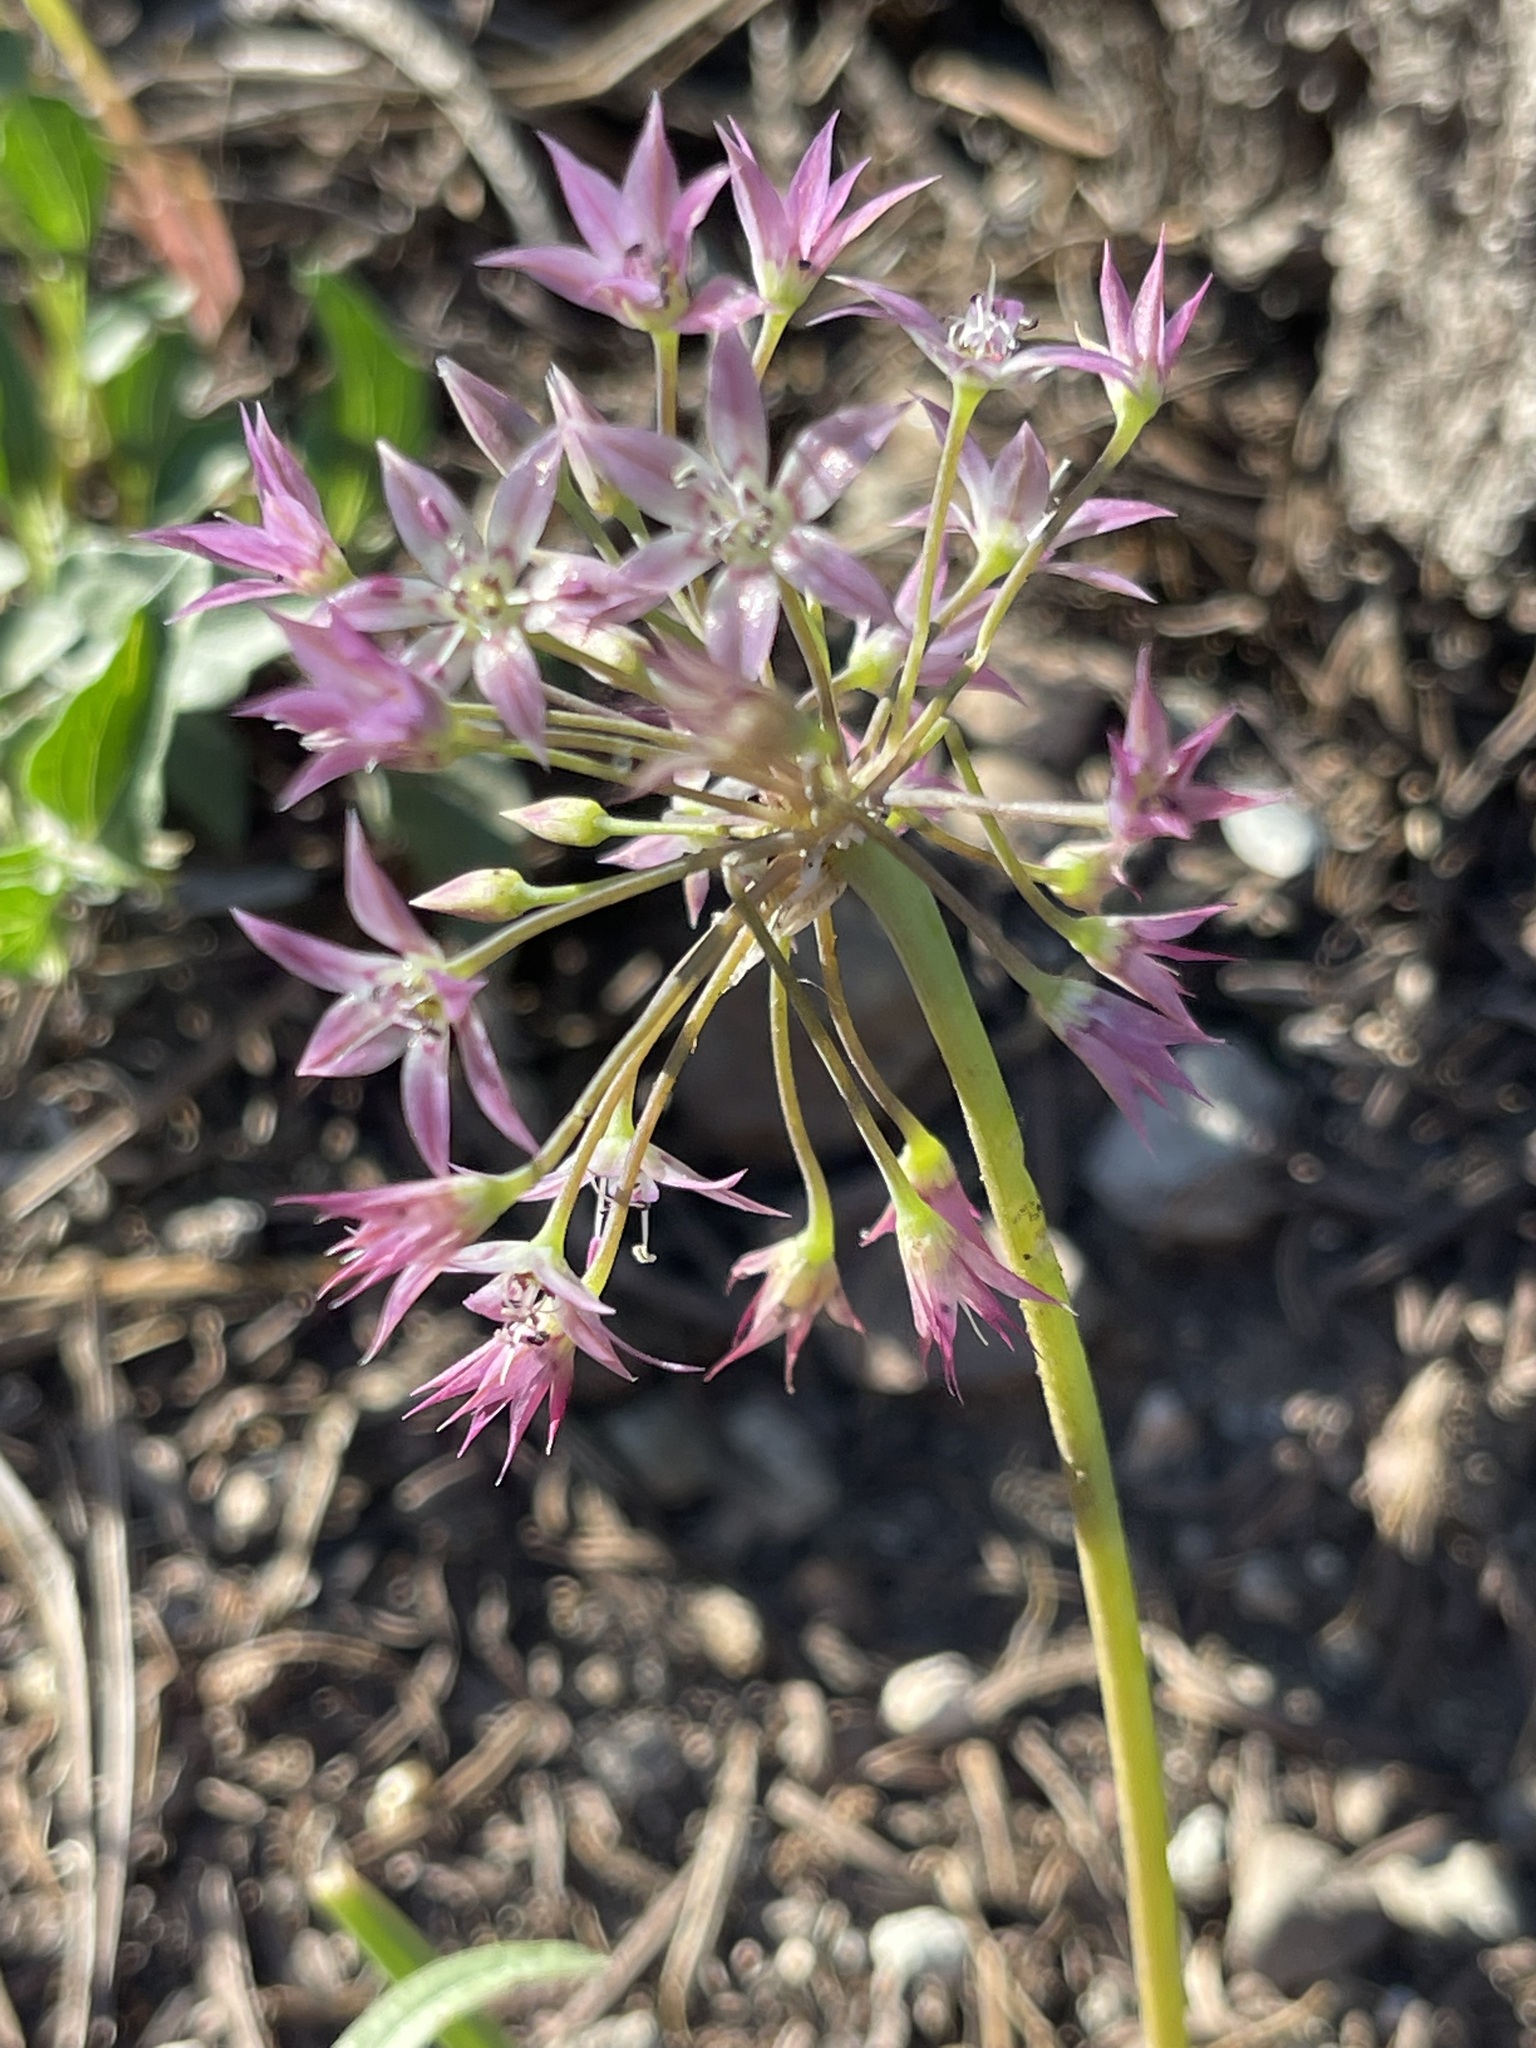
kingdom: Plantae
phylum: Tracheophyta
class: Liliopsida
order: Asparagales
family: Amaryllidaceae
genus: Allium
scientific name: Allium campanulatum
